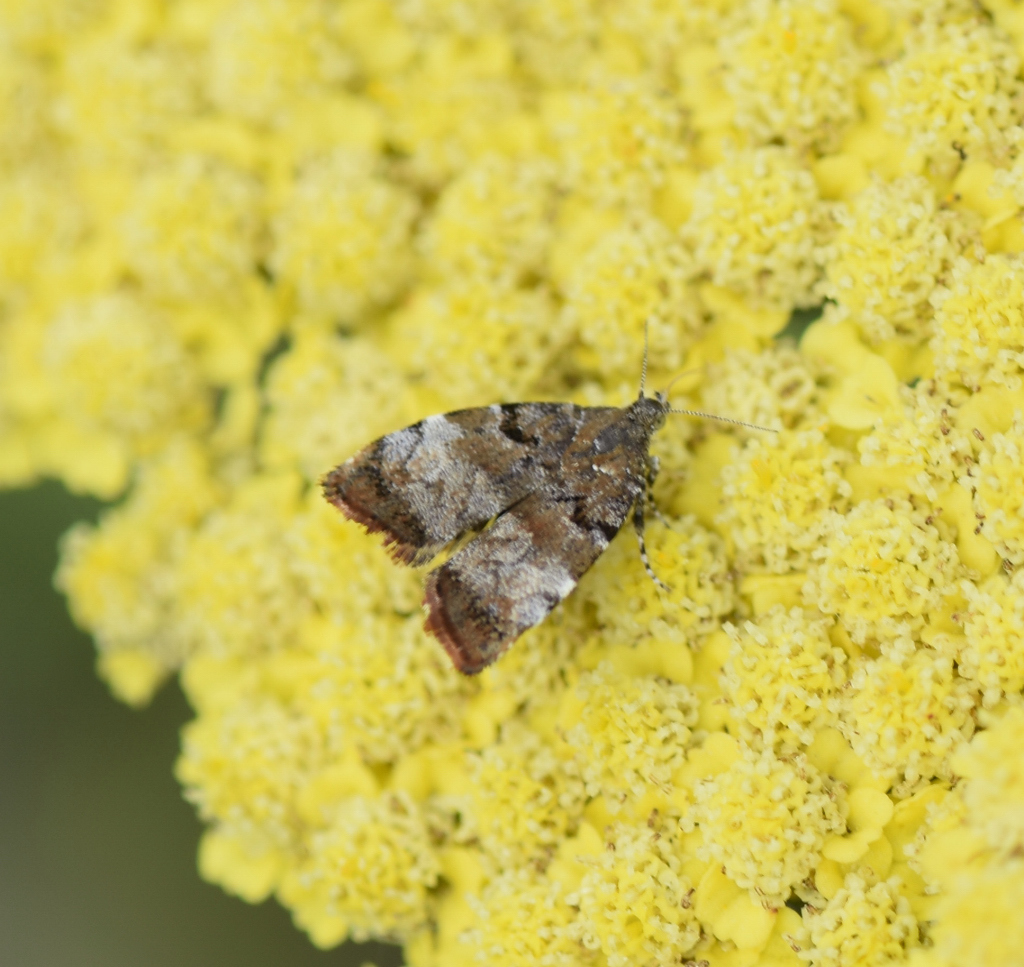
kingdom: Animalia
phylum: Arthropoda
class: Insecta
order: Lepidoptera
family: Choreutidae
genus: Choreutis
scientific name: Choreutis pariana
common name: Apple leaf skeletoniser
